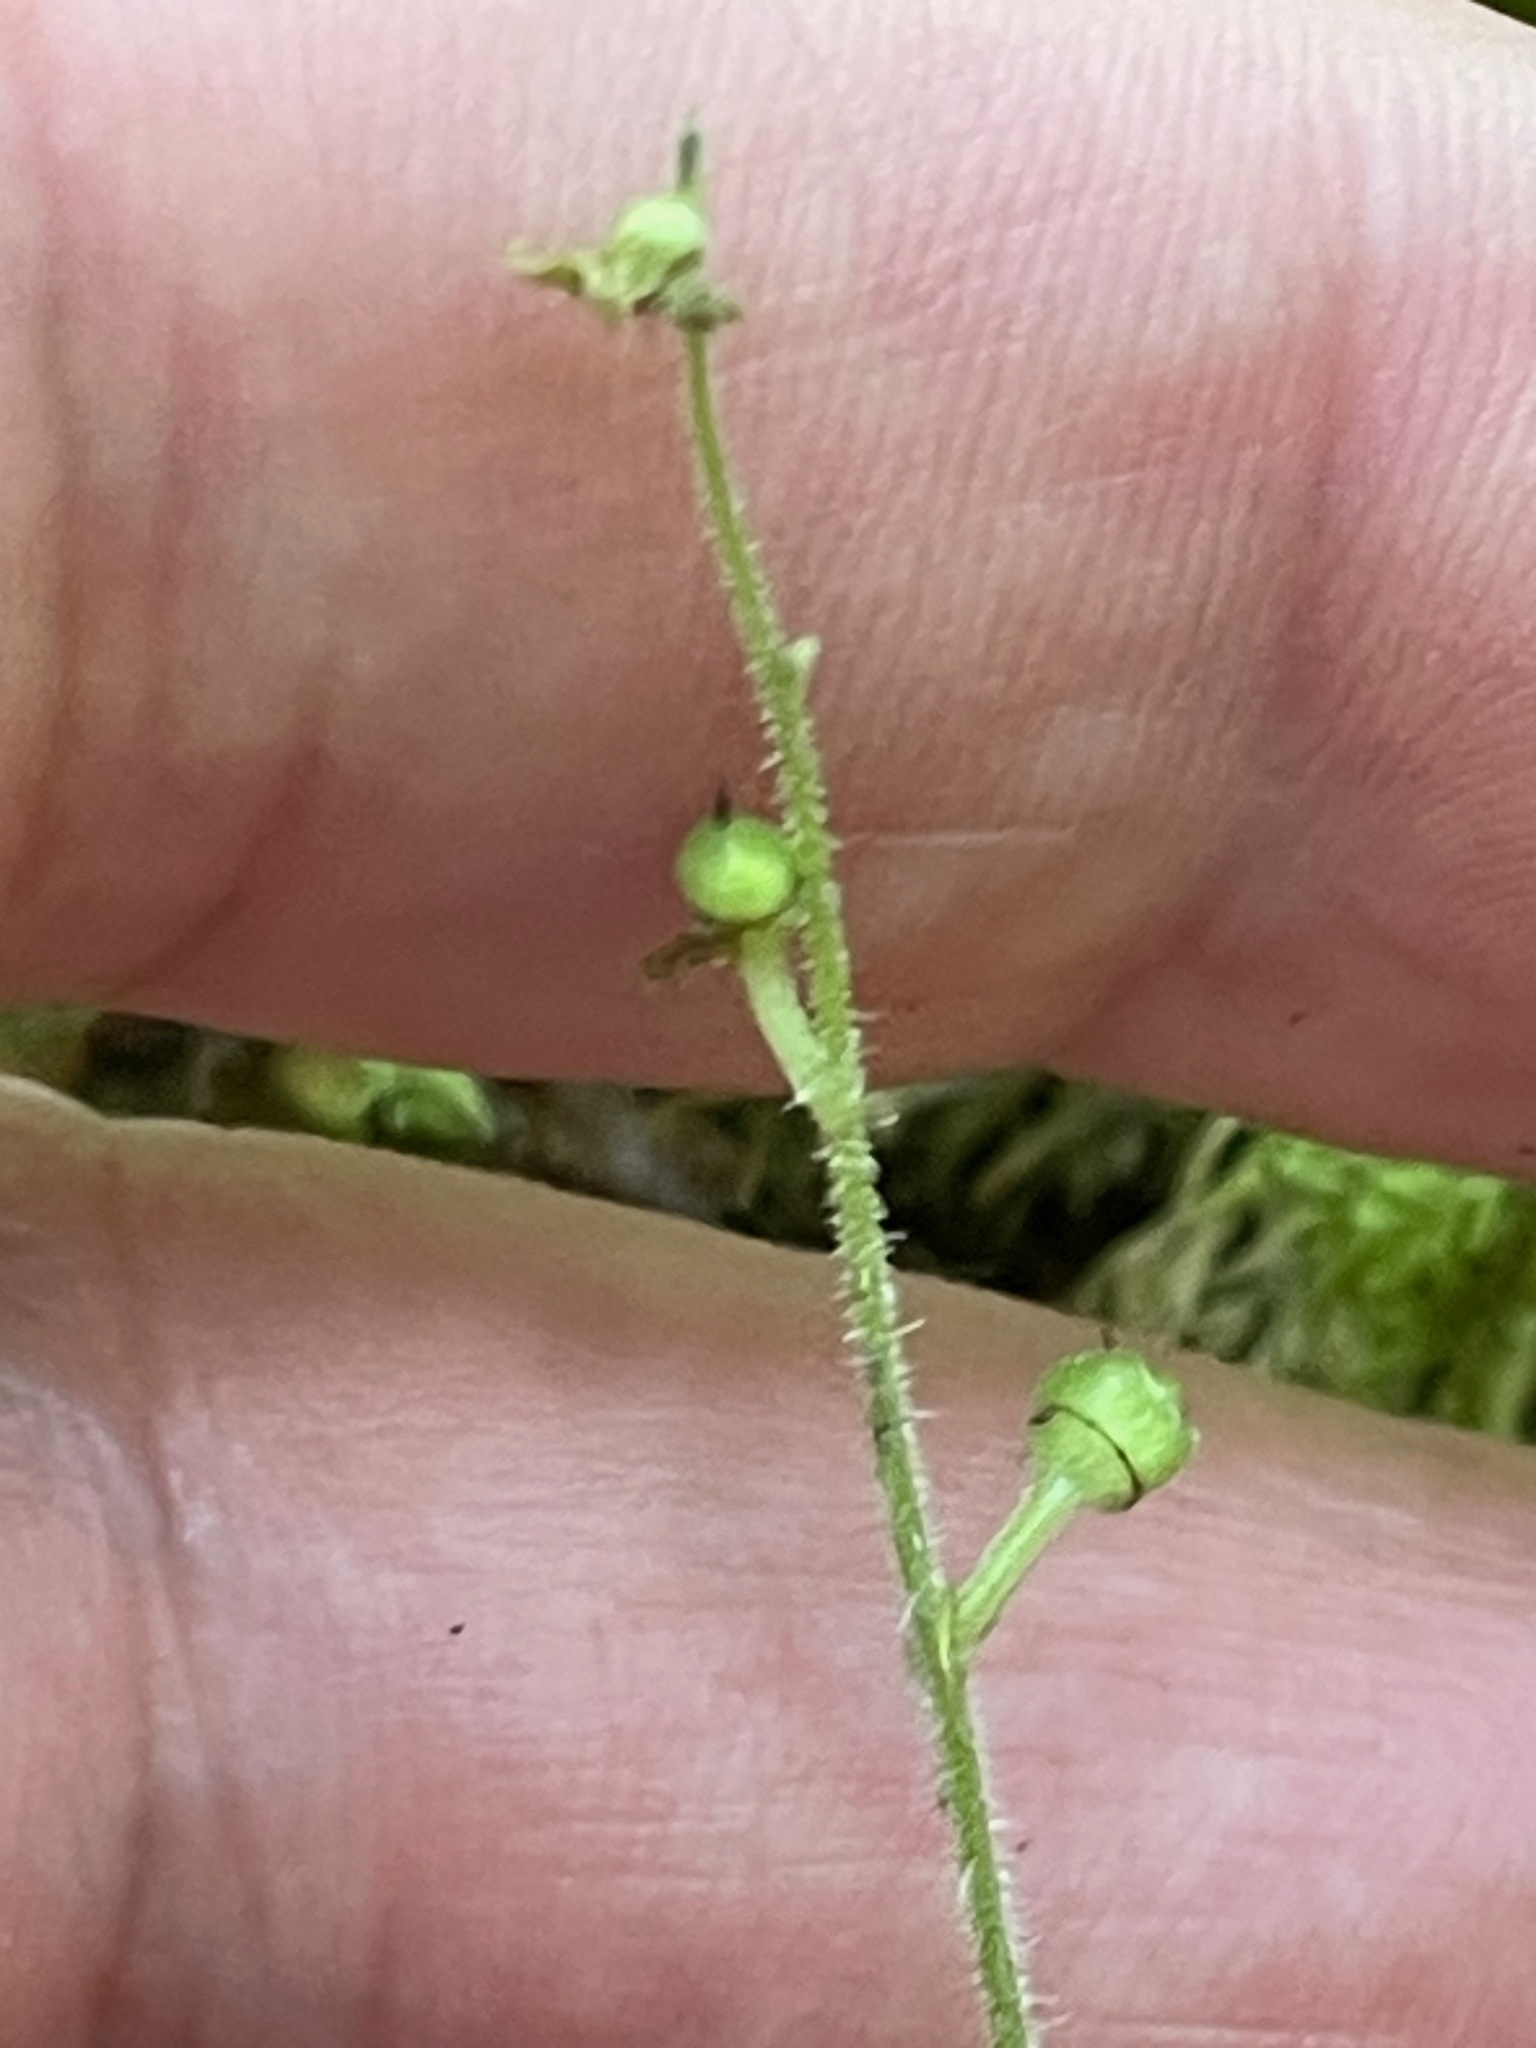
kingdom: Plantae
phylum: Tracheophyta
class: Magnoliopsida
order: Saxifragales
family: Saxifragaceae
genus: Mitella
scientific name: Mitella nuda
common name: Bare-stemmed bishop's-cap
